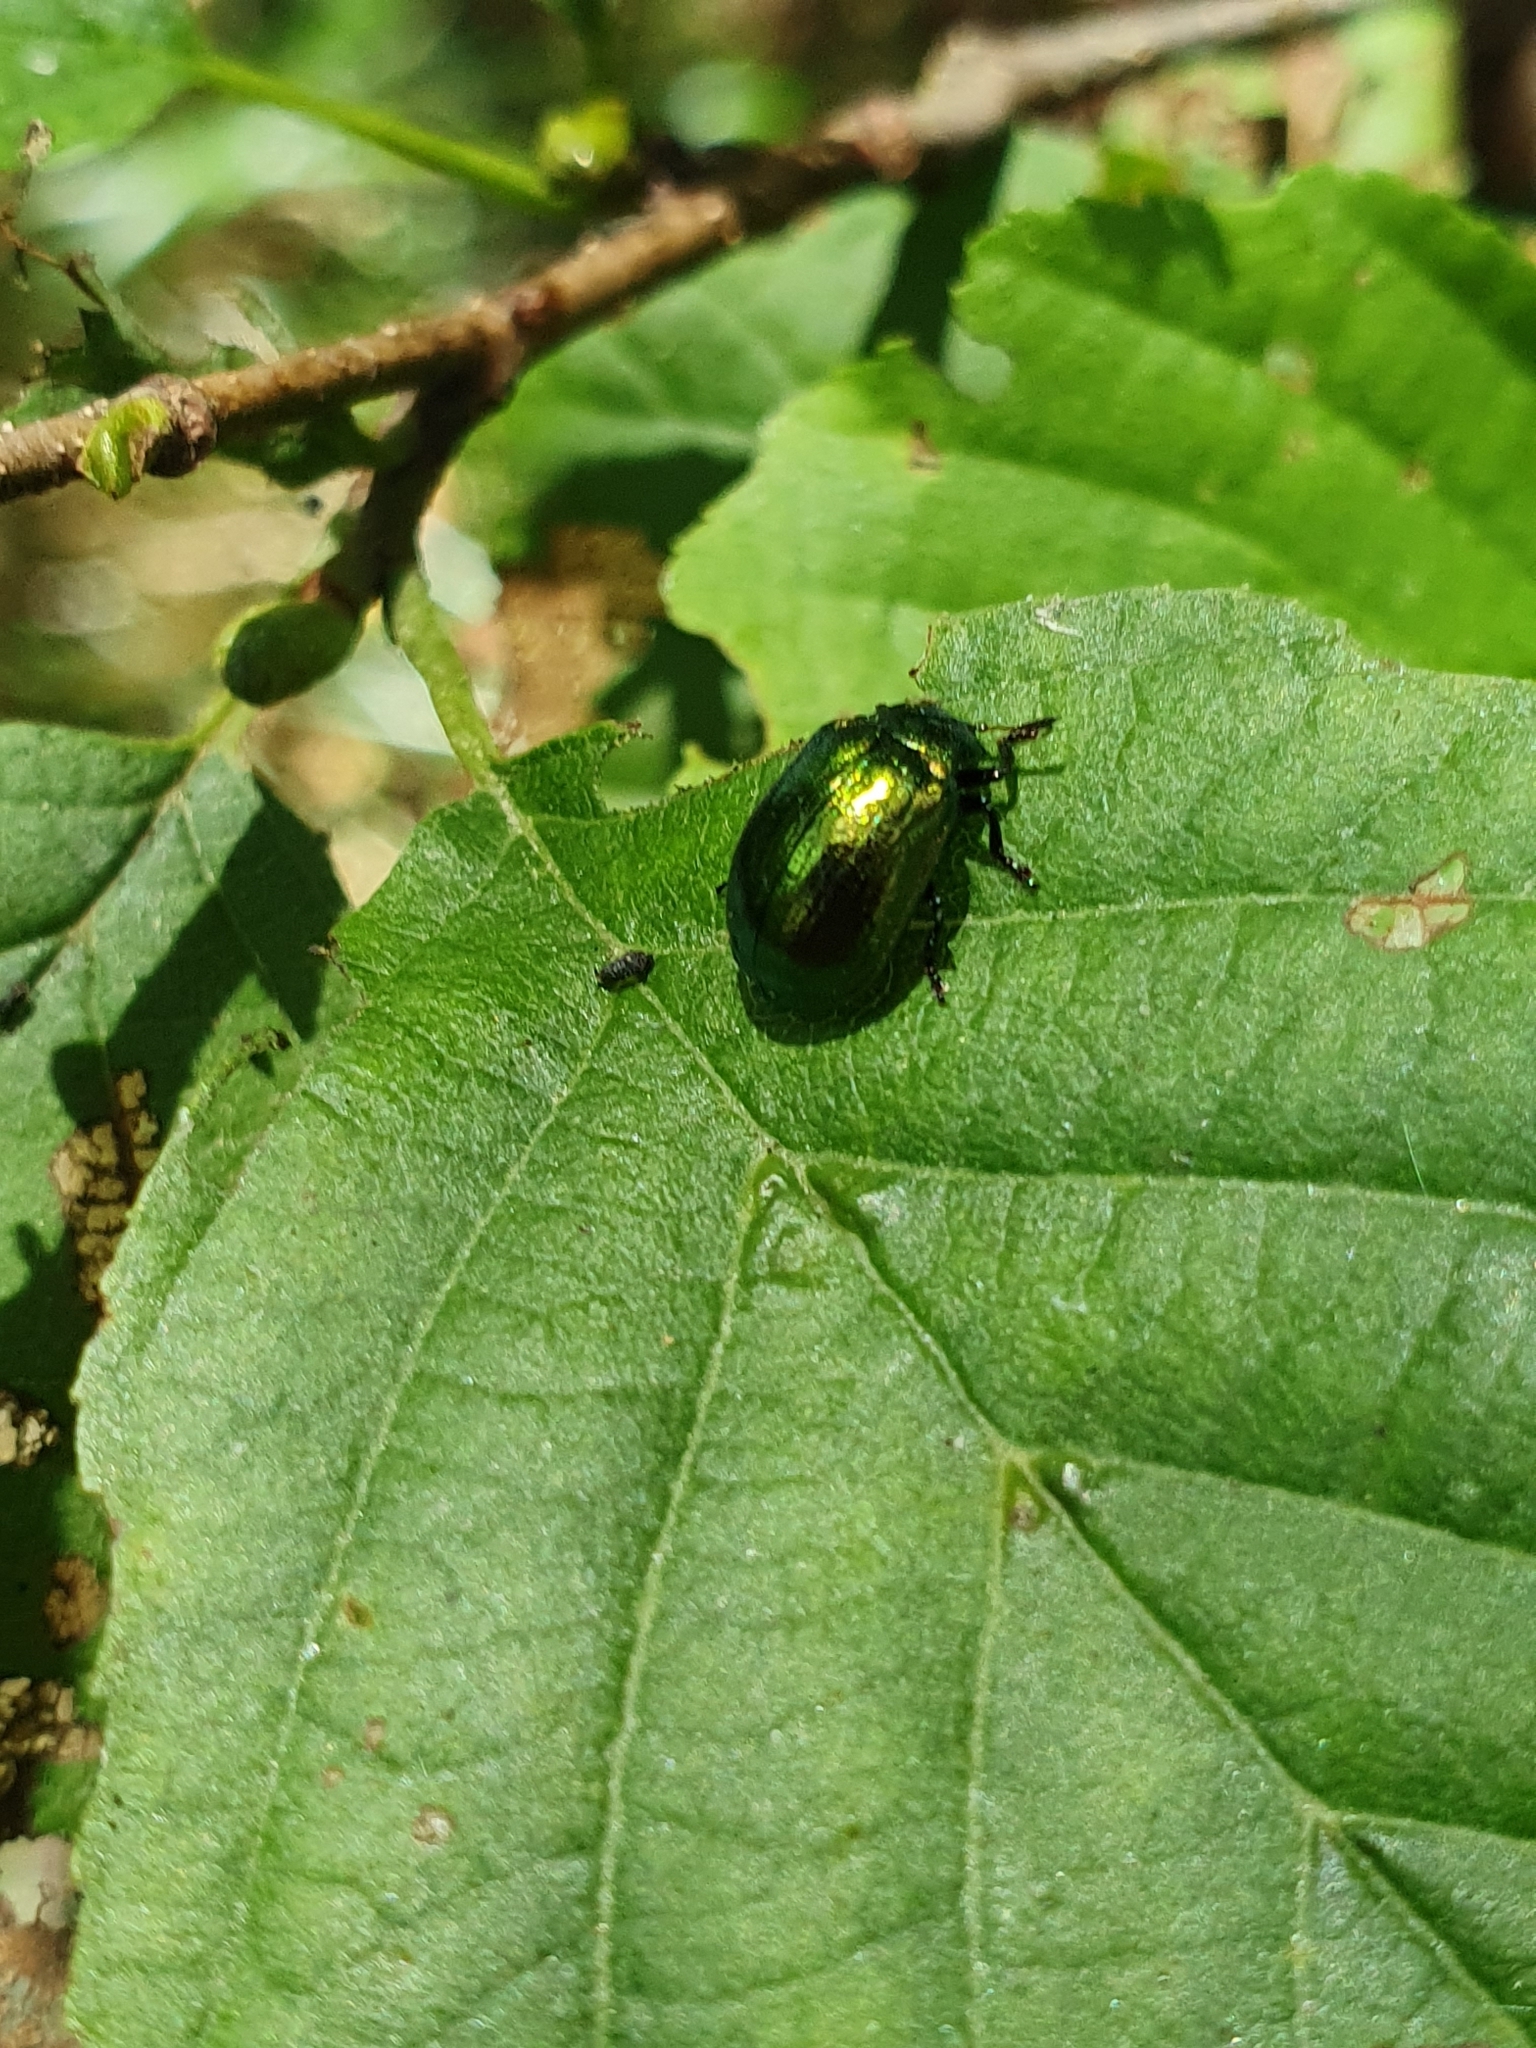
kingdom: Animalia
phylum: Arthropoda
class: Insecta
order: Coleoptera
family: Chrysomelidae
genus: Plagiosterna
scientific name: Plagiosterna aenea
